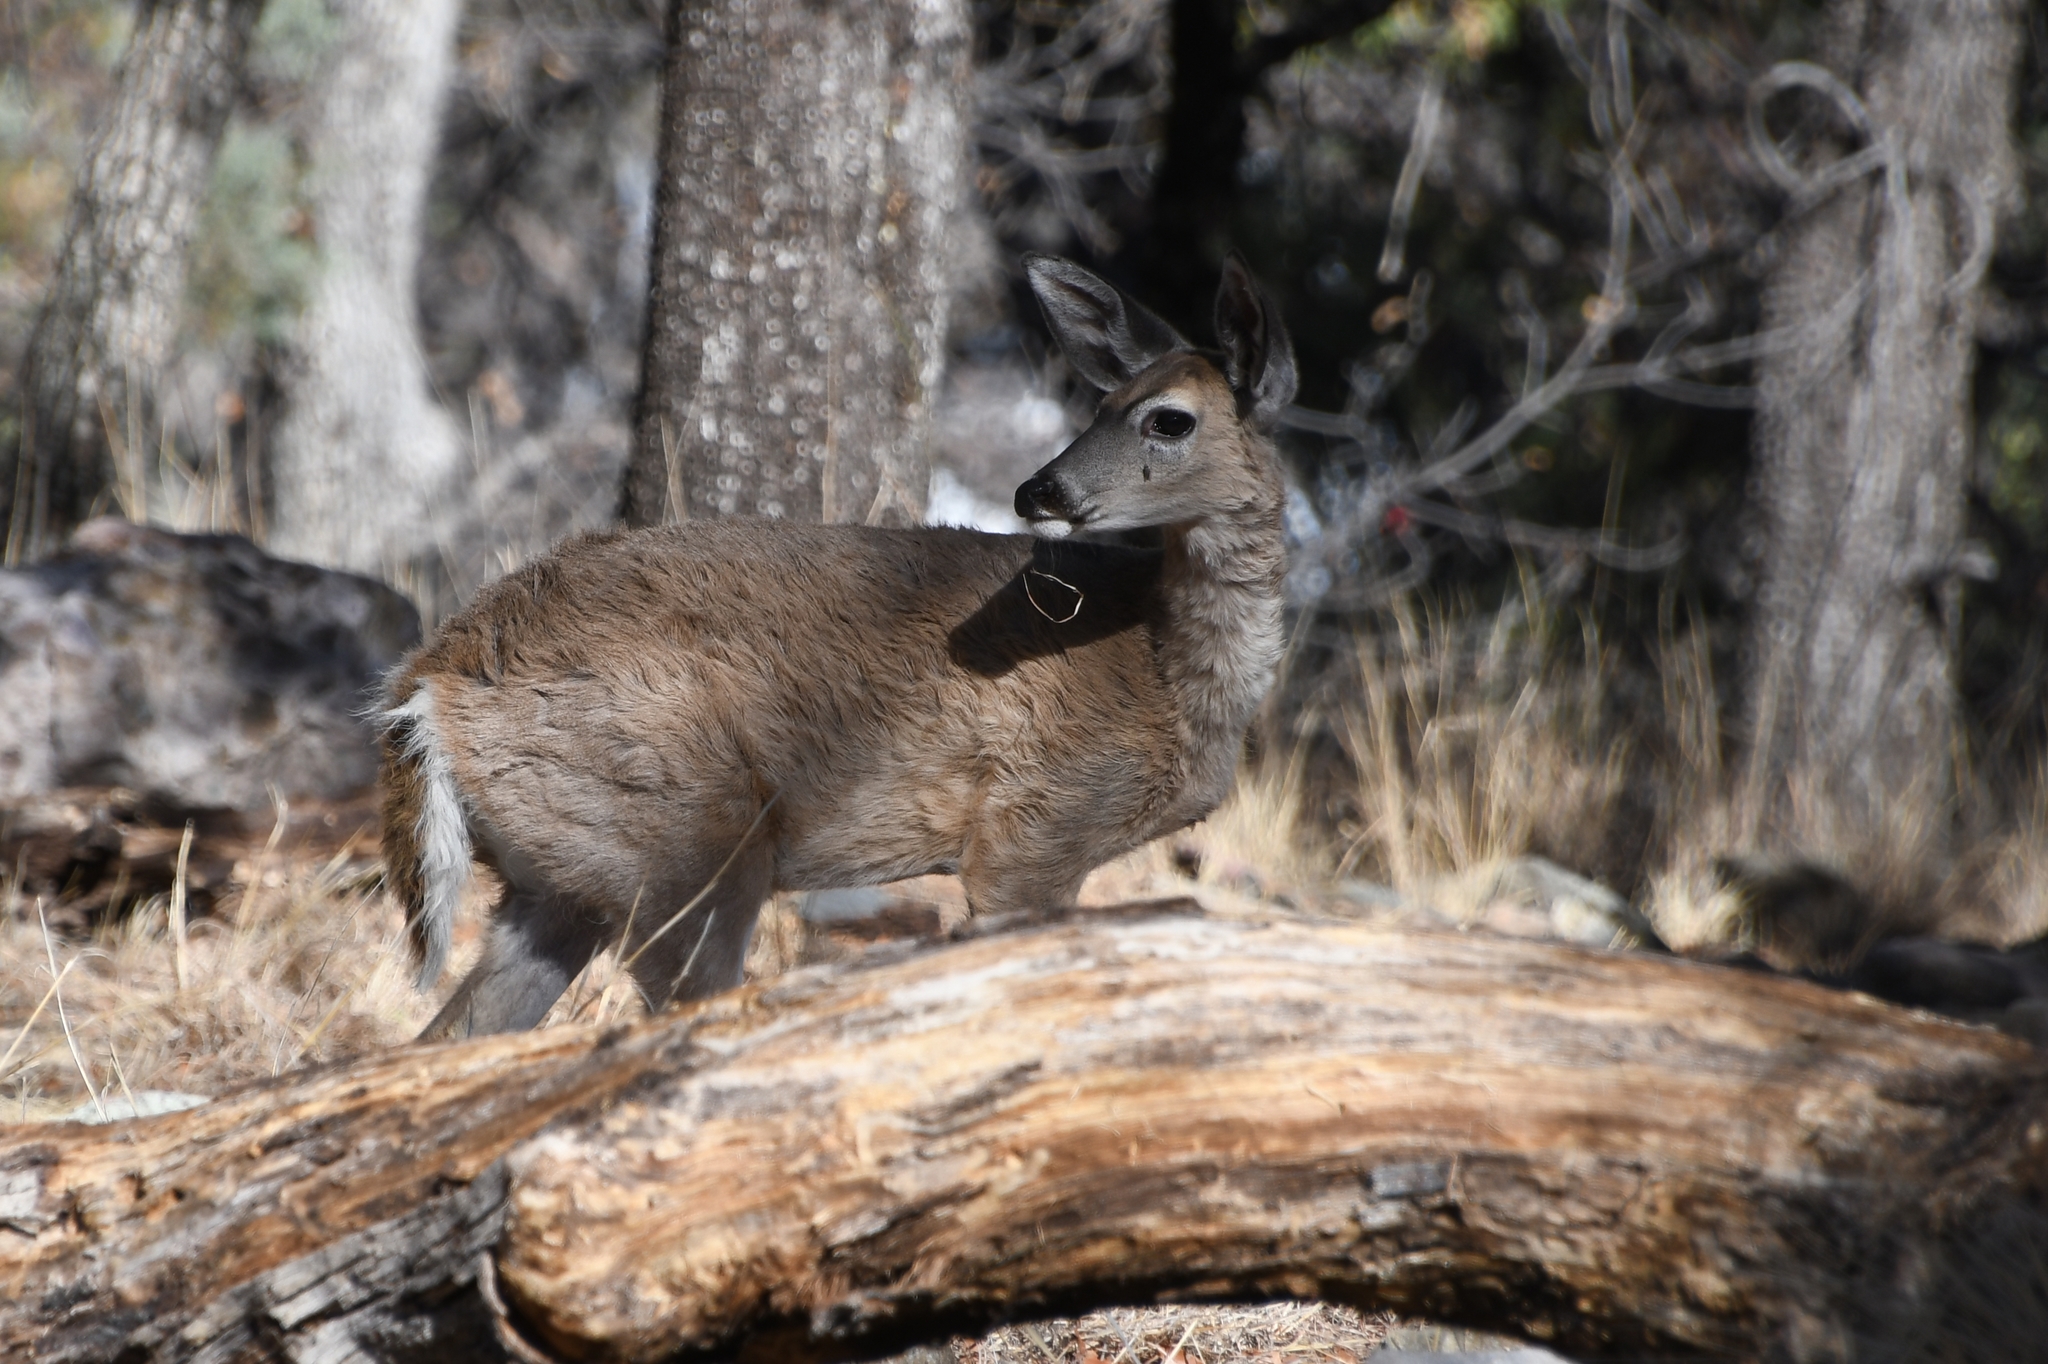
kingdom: Animalia
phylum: Chordata
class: Mammalia
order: Artiodactyla
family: Cervidae
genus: Odocoileus
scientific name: Odocoileus virginianus
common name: White-tailed deer
